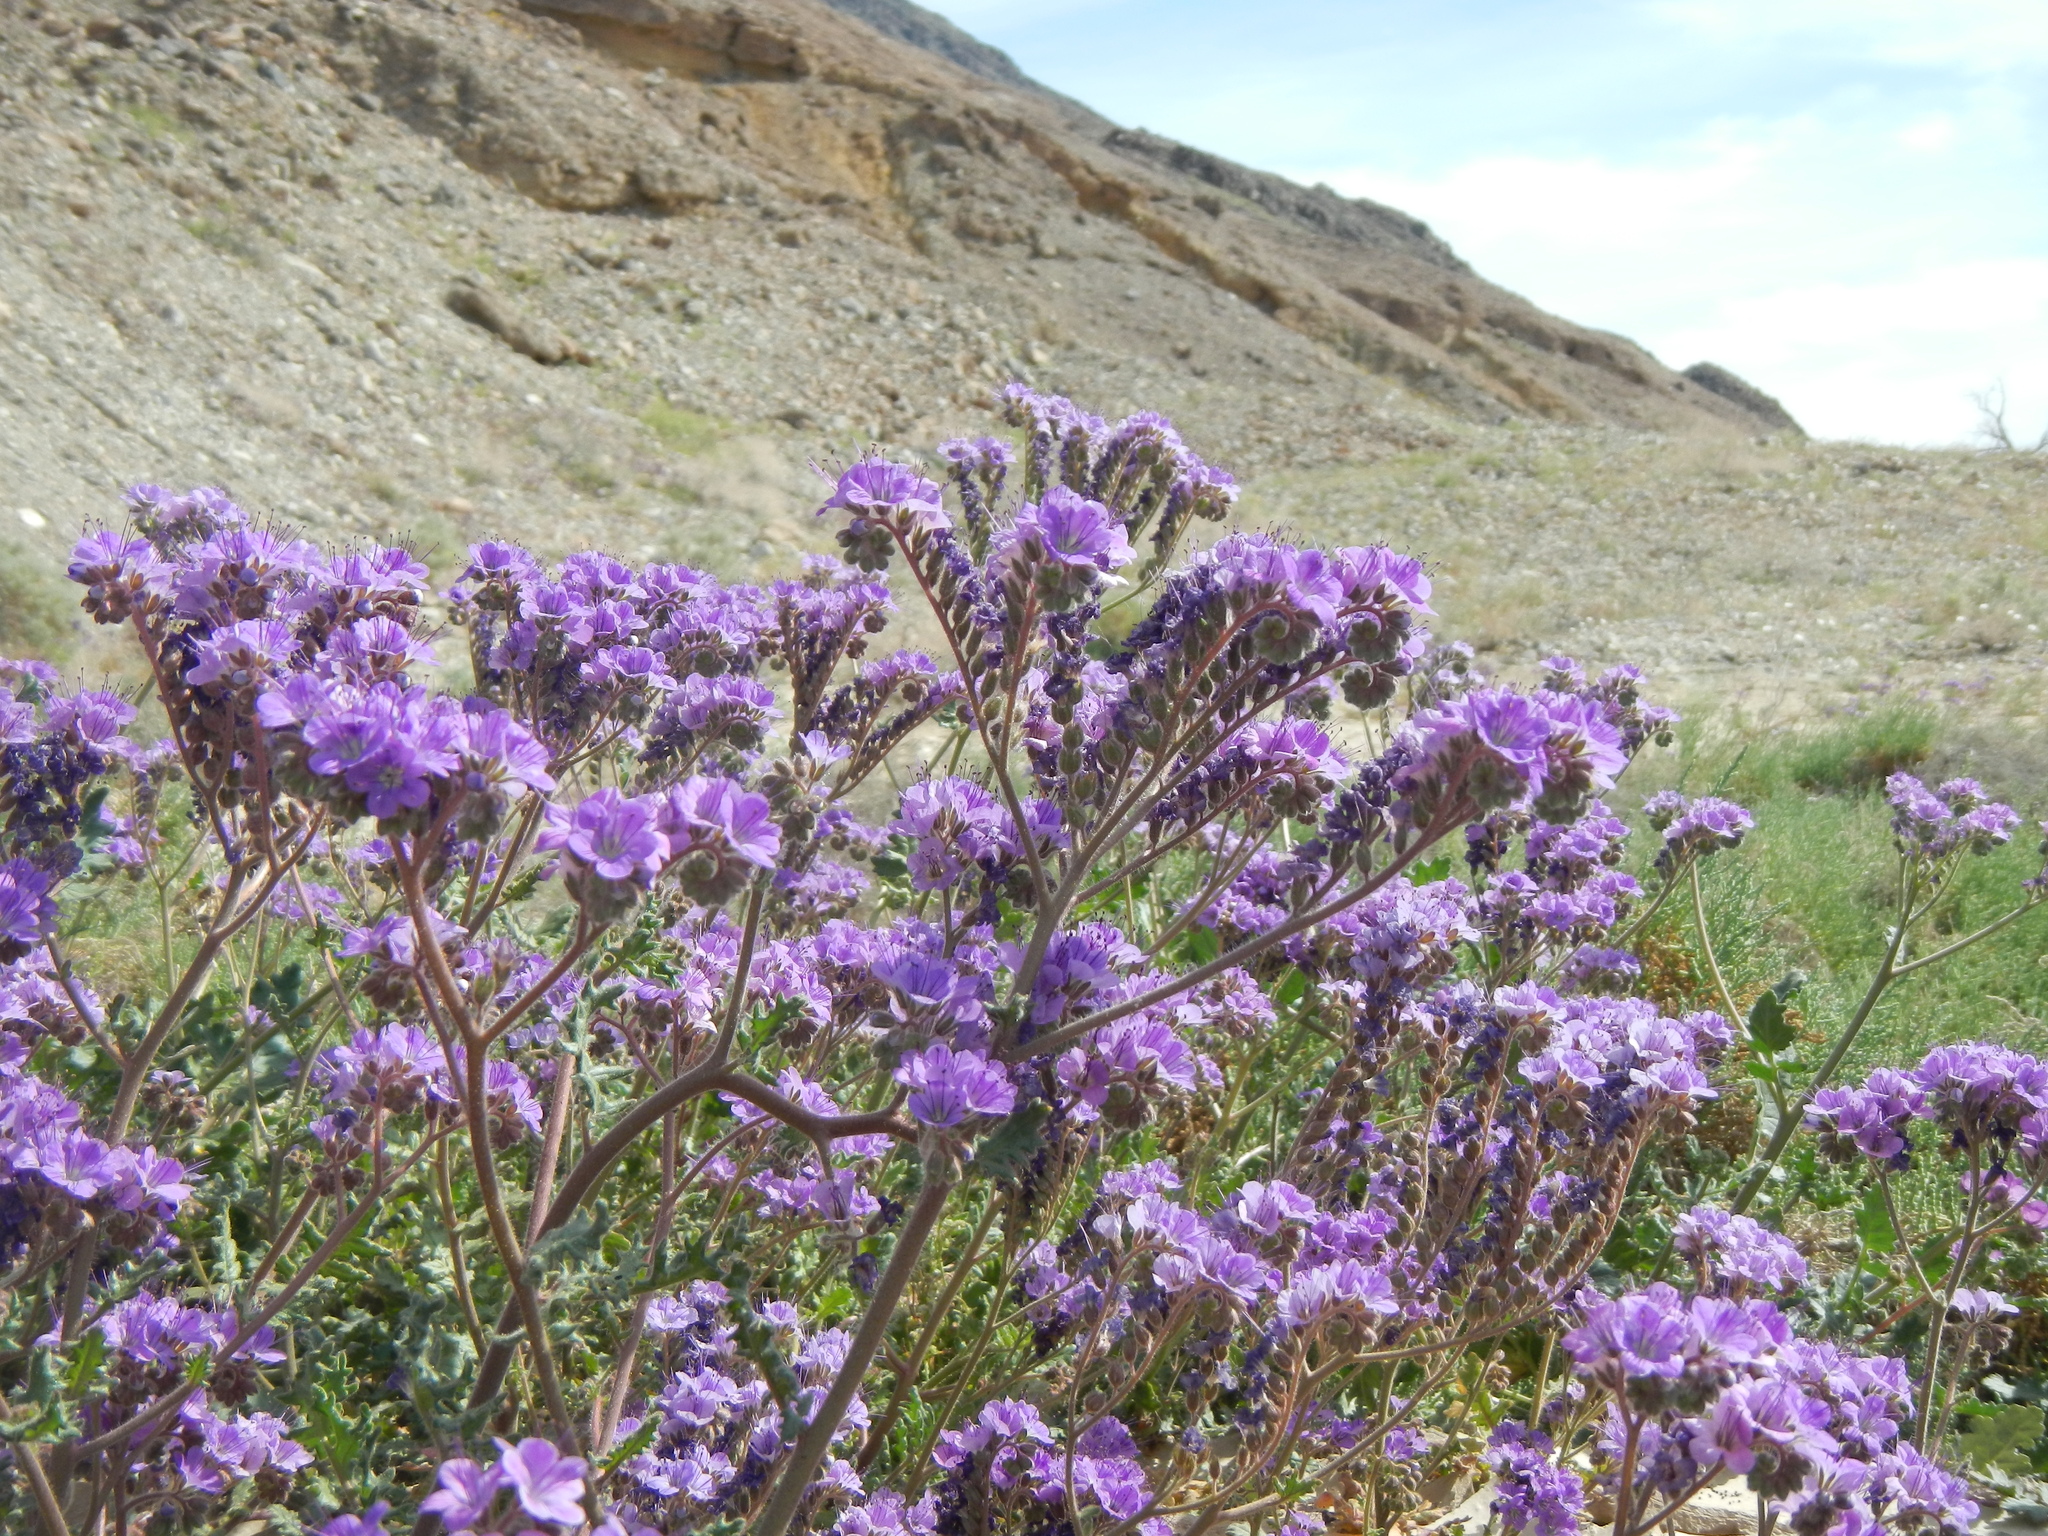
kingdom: Plantae
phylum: Tracheophyta
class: Magnoliopsida
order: Boraginales
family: Hydrophyllaceae
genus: Phacelia
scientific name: Phacelia crenulata
